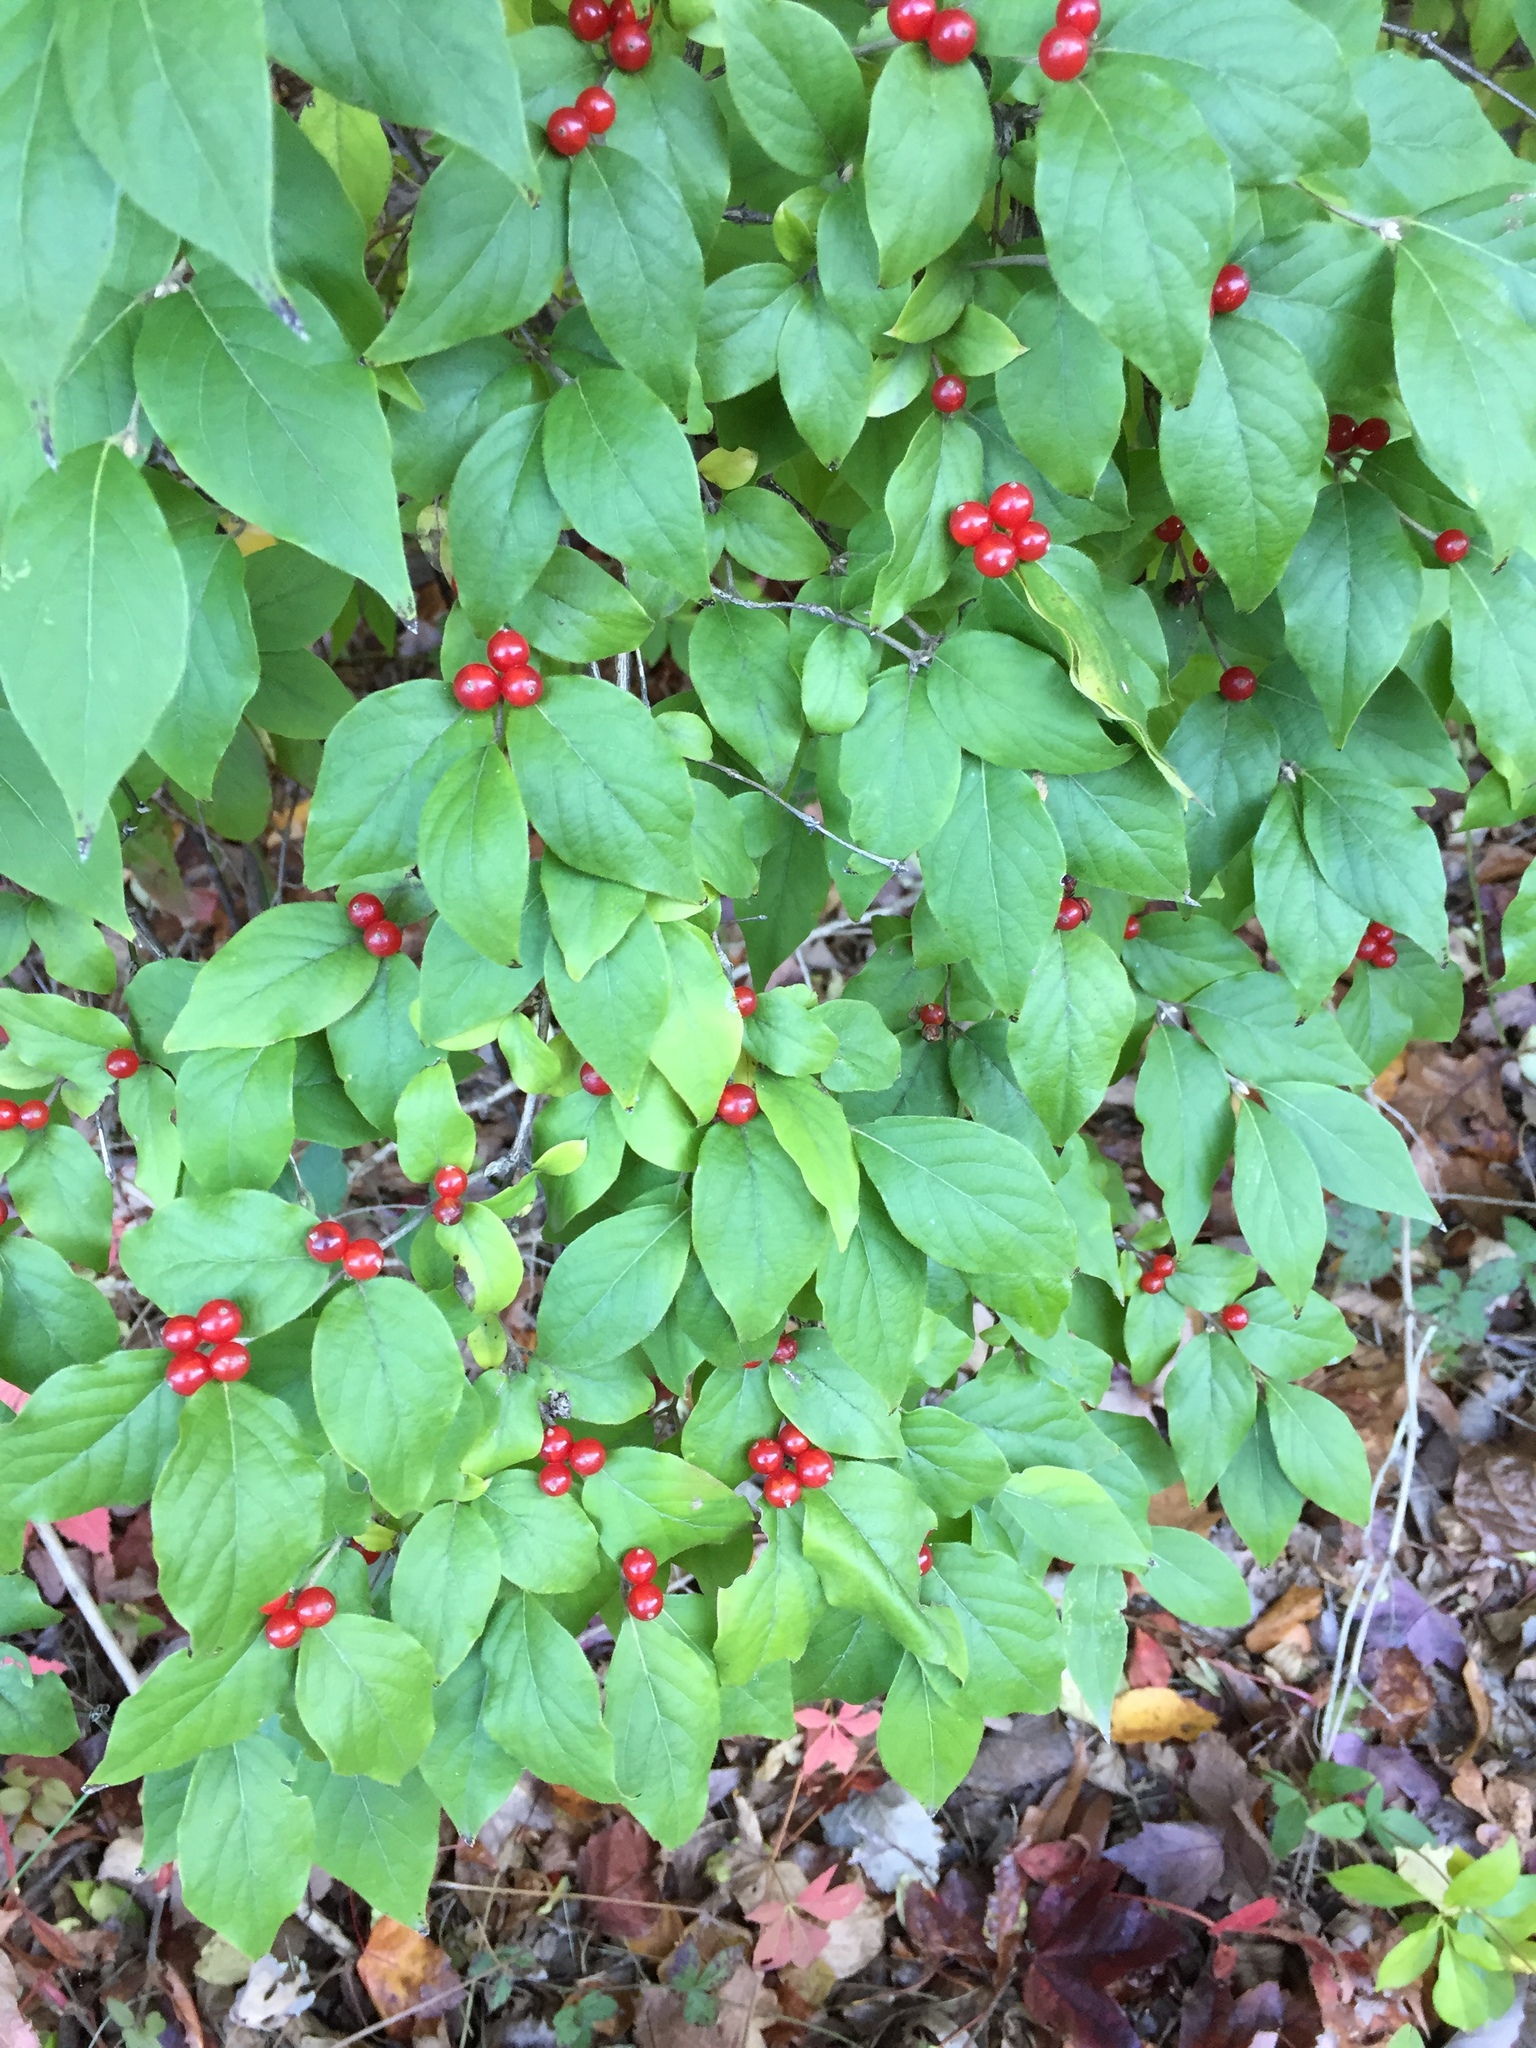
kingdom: Plantae
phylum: Tracheophyta
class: Magnoliopsida
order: Dipsacales
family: Caprifoliaceae
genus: Lonicera
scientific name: Lonicera maackii
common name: Amur honeysuckle
